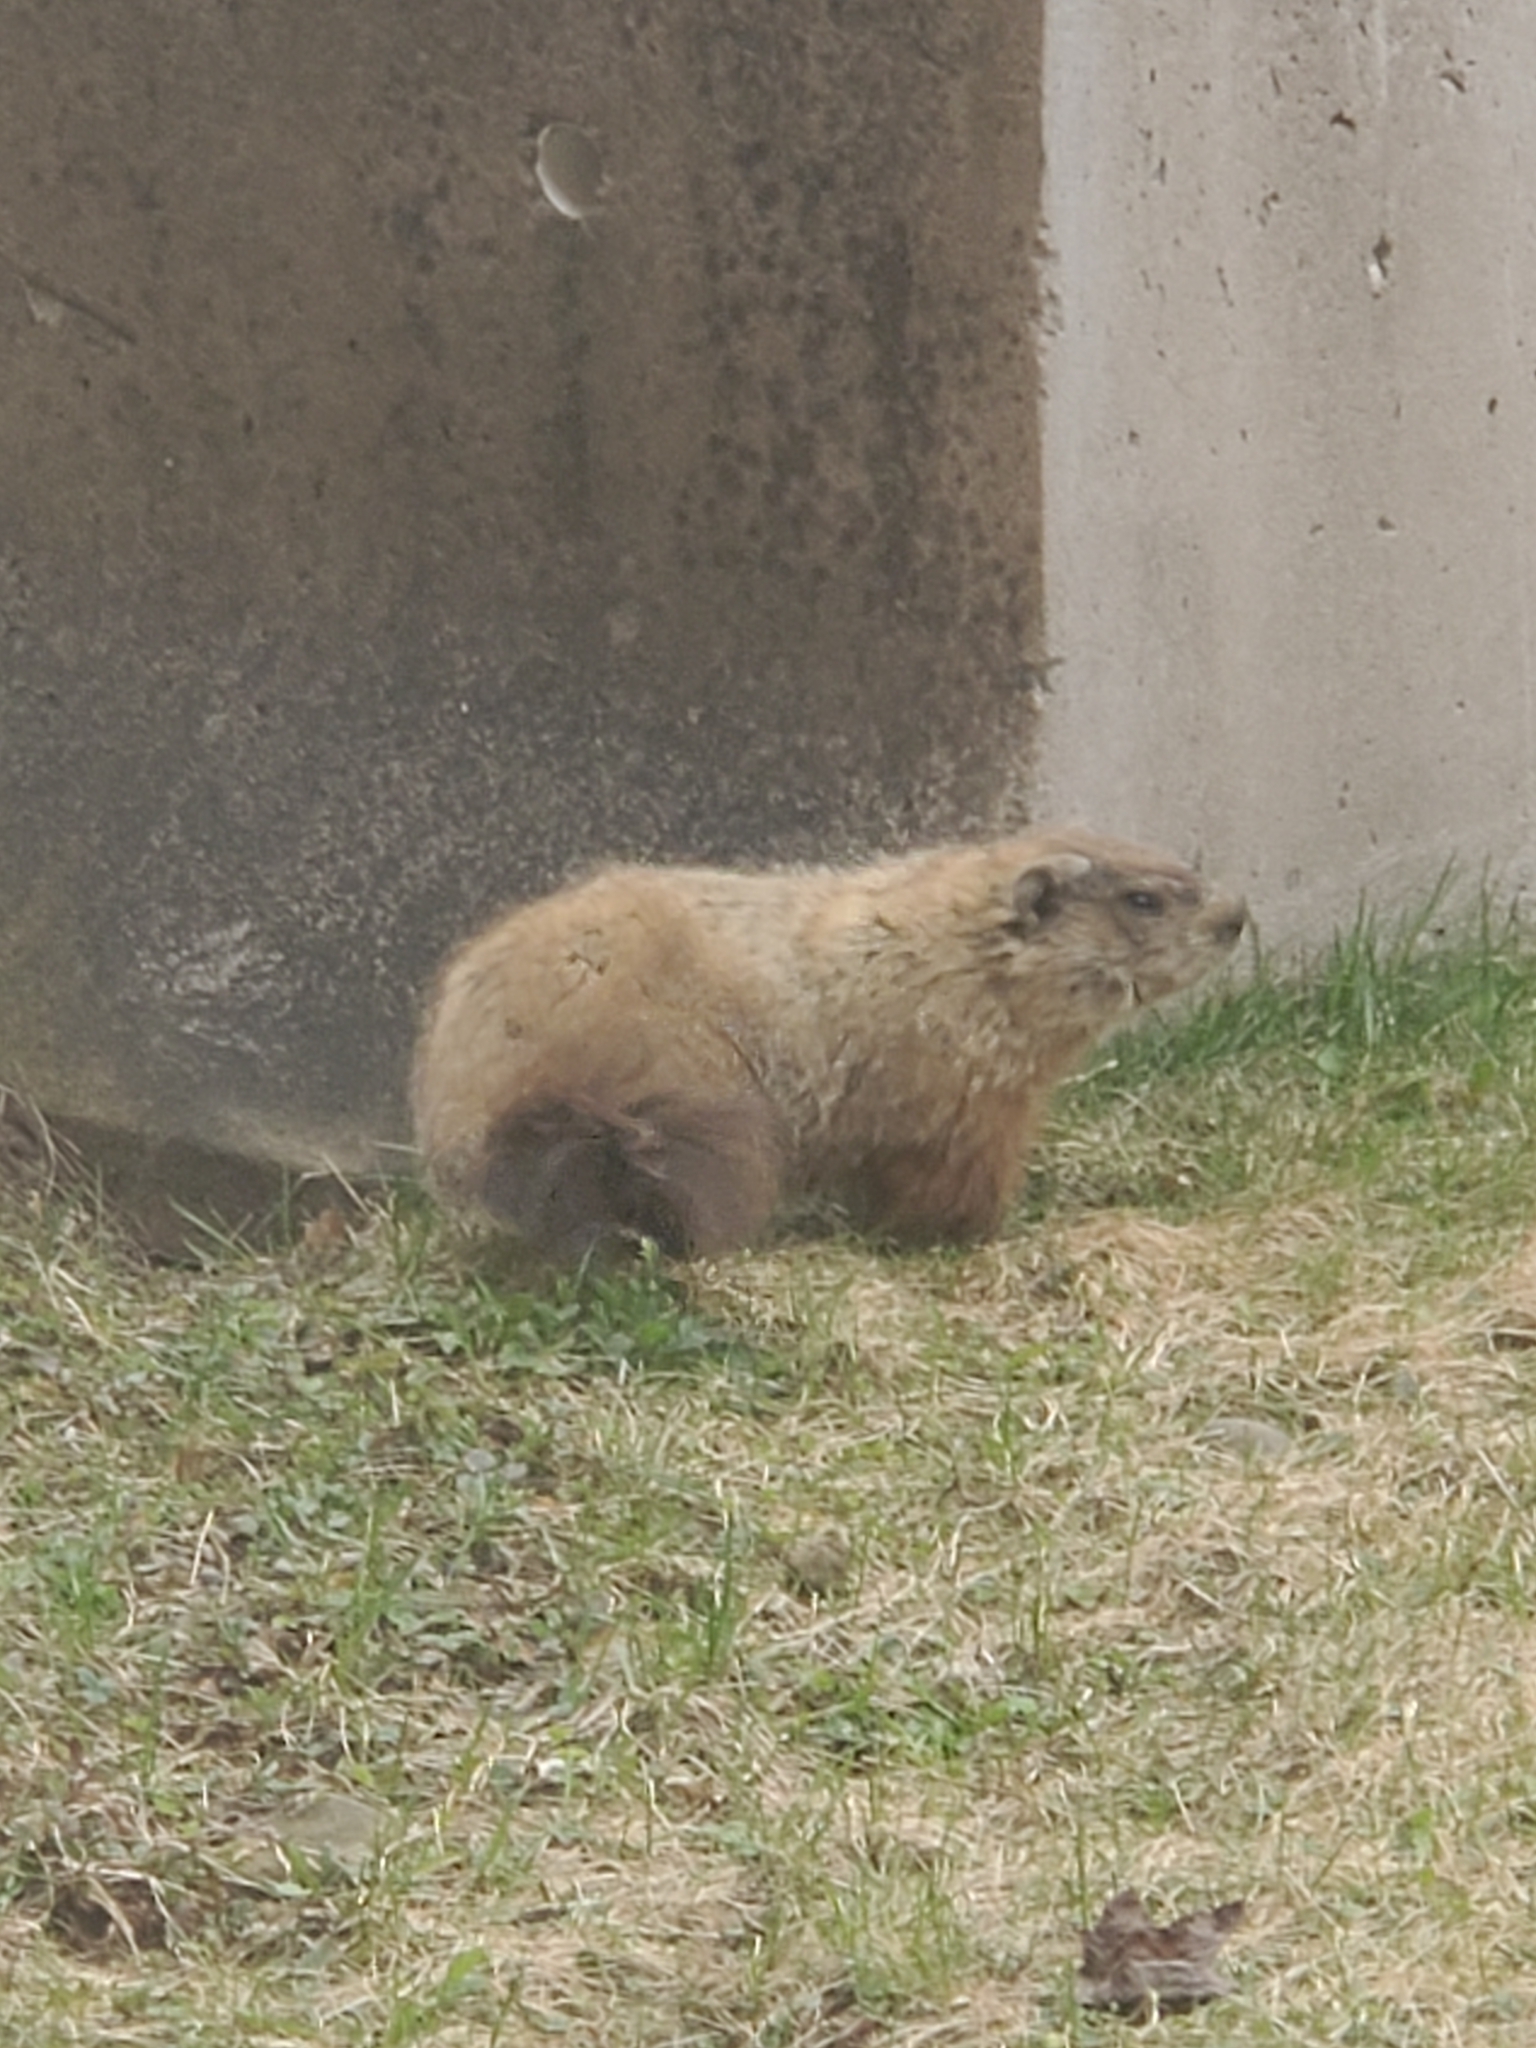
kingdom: Animalia
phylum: Chordata
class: Mammalia
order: Rodentia
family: Sciuridae
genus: Marmota
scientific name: Marmota monax
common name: Groundhog
